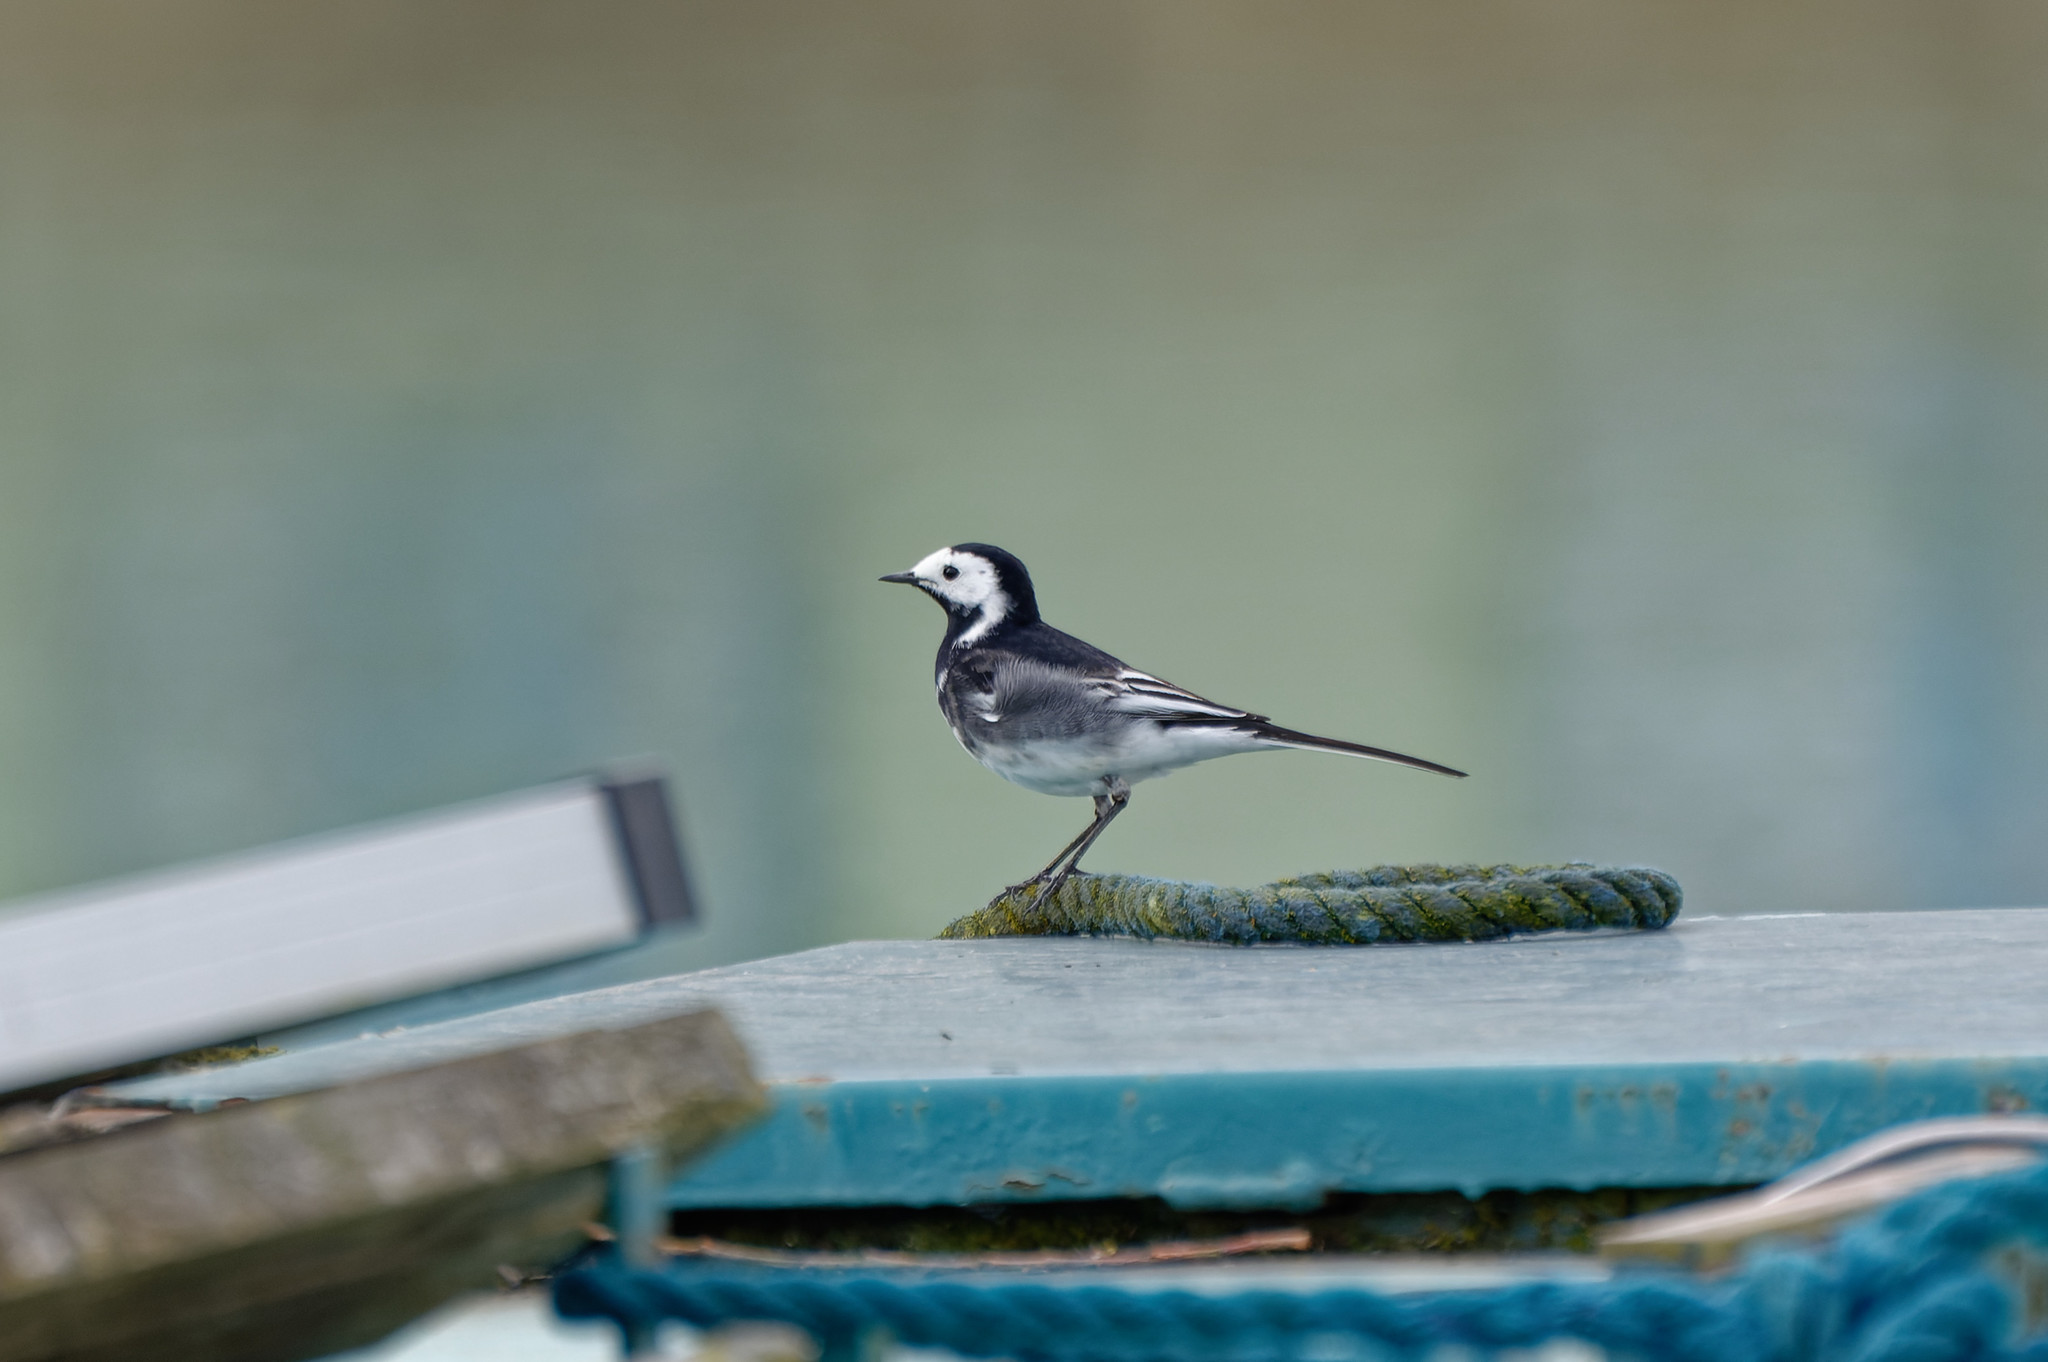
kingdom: Animalia
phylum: Chordata
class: Aves
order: Passeriformes
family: Motacillidae
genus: Motacilla
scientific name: Motacilla alba
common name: White wagtail
